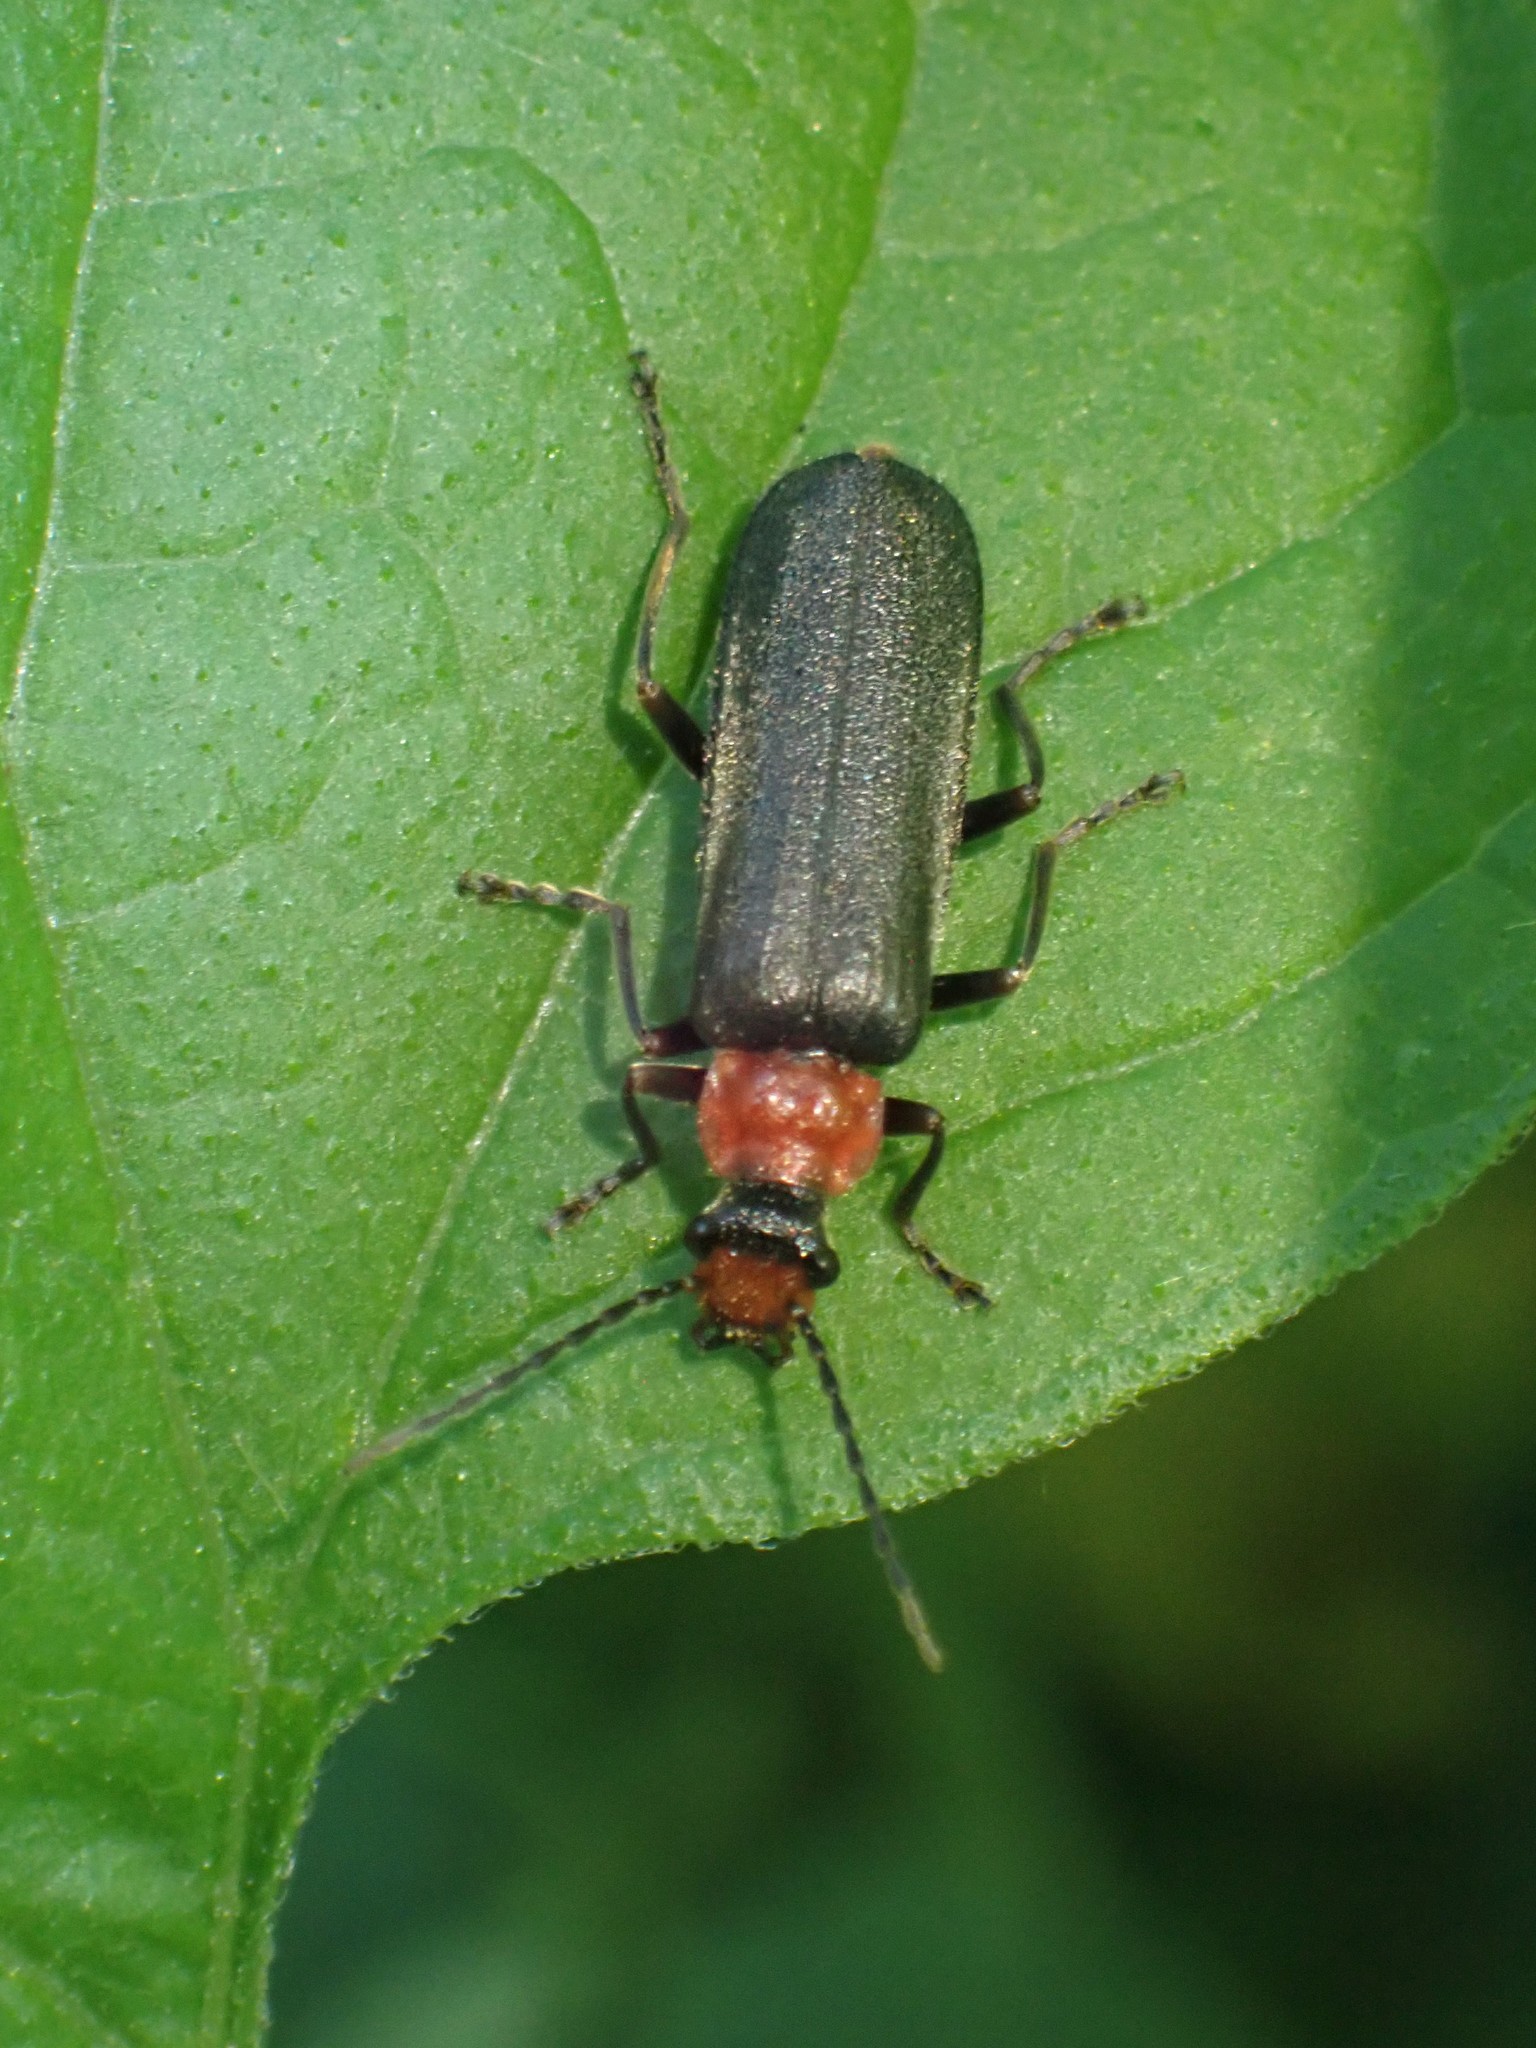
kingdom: Animalia
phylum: Arthropoda
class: Insecta
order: Coleoptera
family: Cantharidae
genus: Podabrus
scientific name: Podabrus pruinosus
